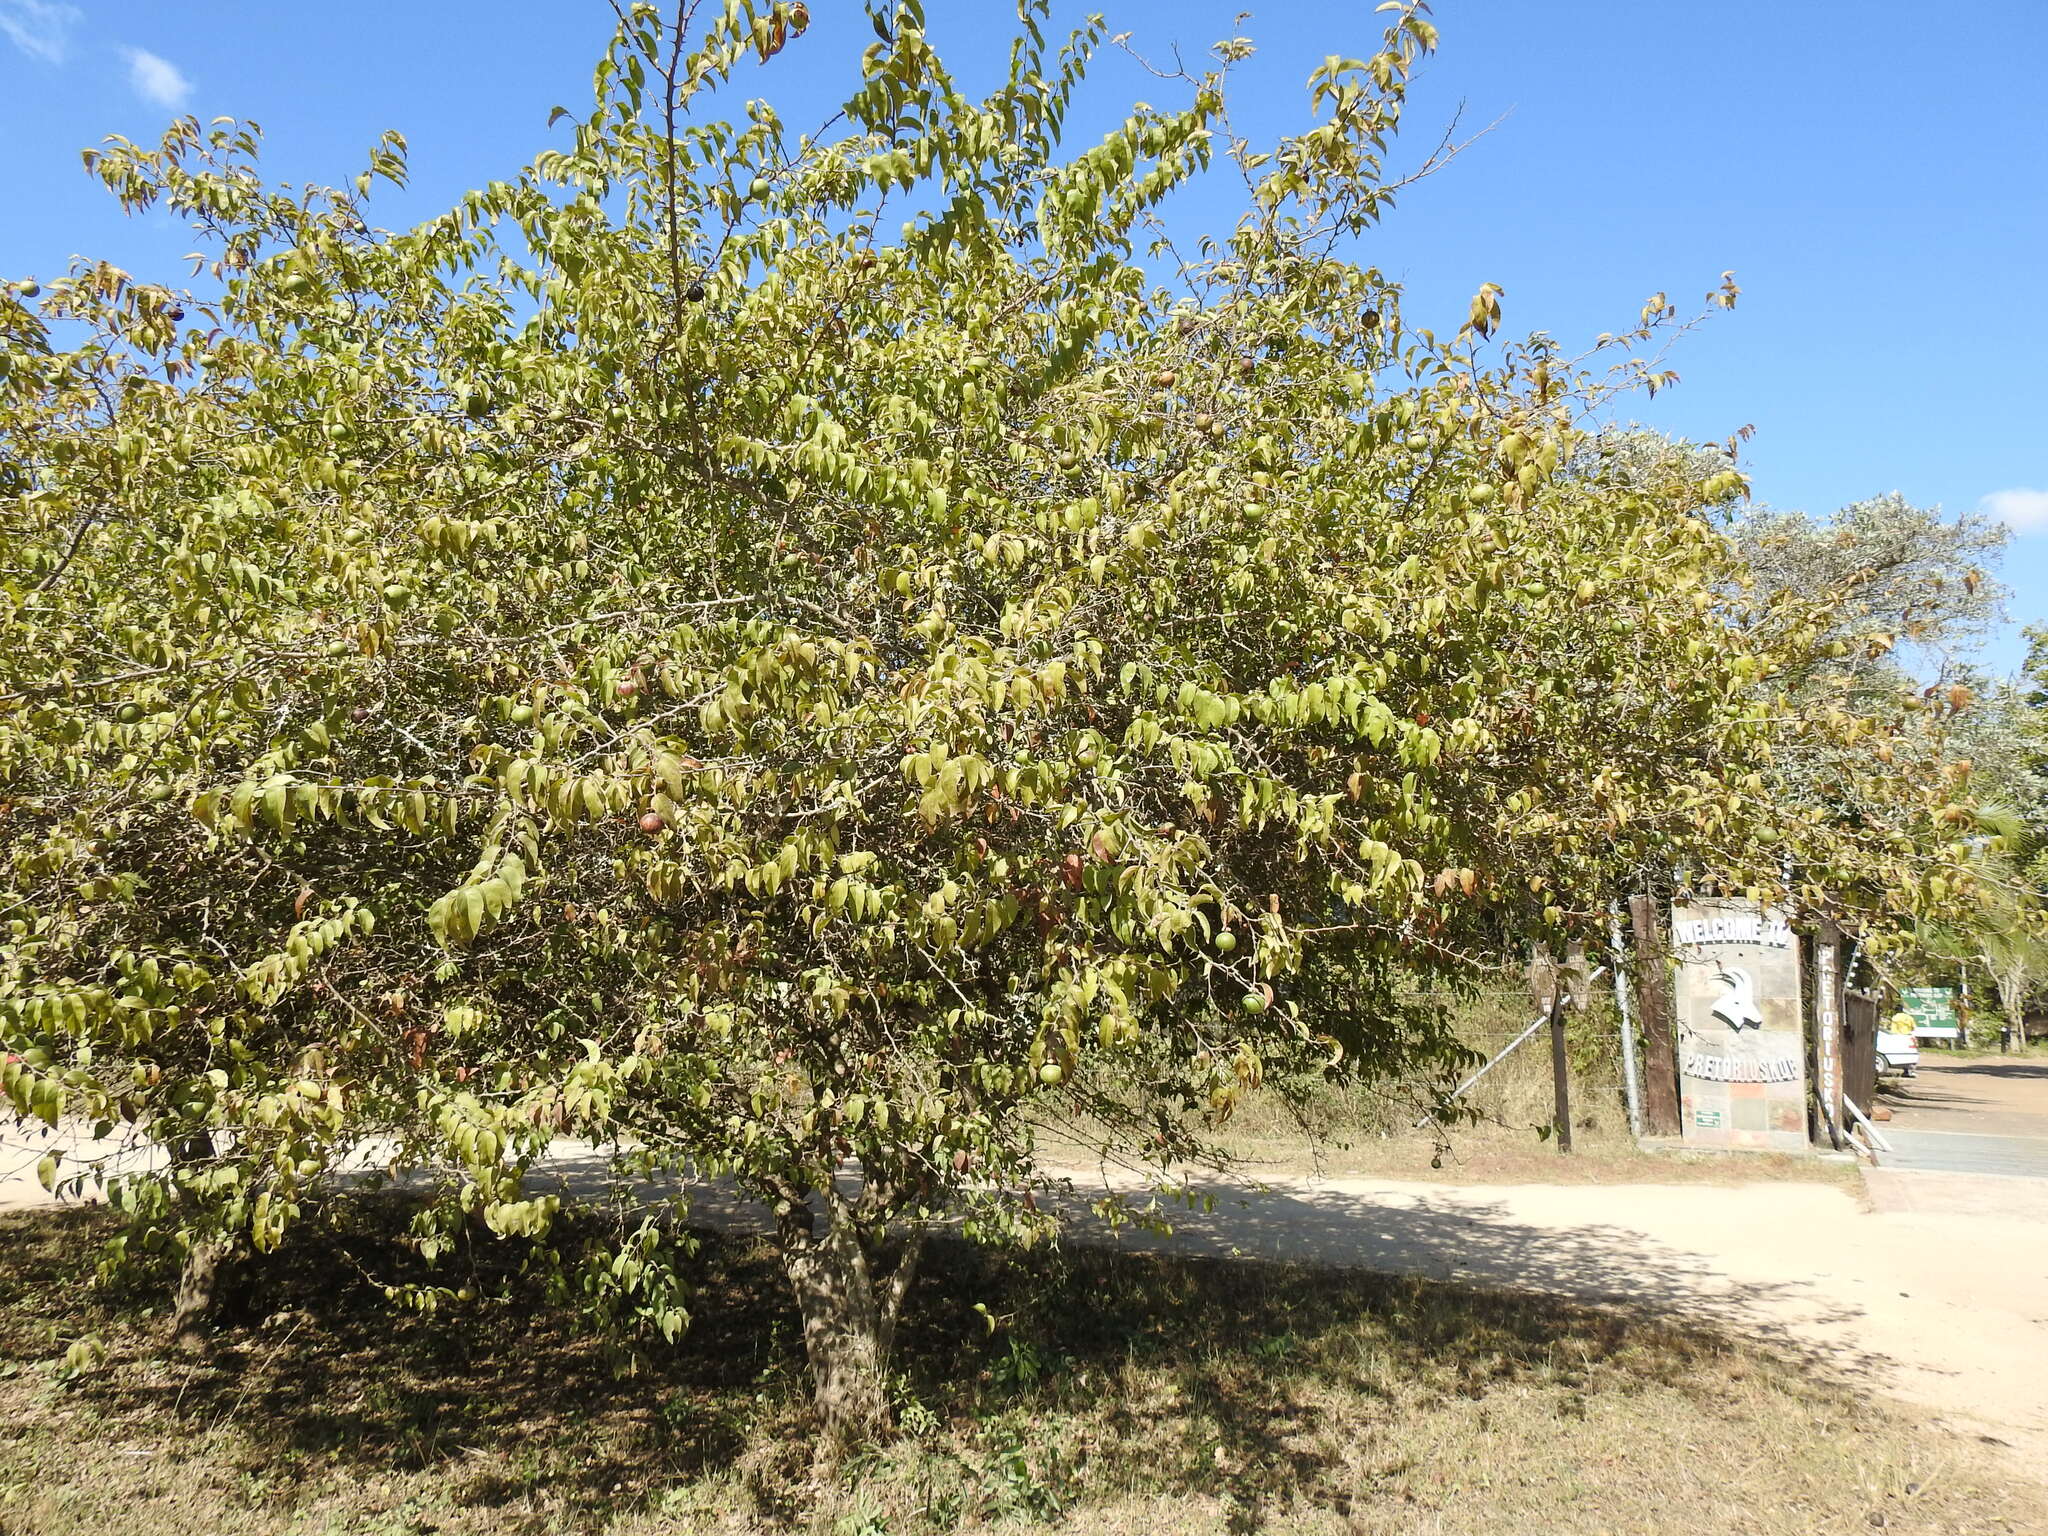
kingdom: Plantae
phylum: Tracheophyta
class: Magnoliopsida
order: Malpighiales
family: Salicaceae
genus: Oncoba
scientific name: Oncoba spinosa
